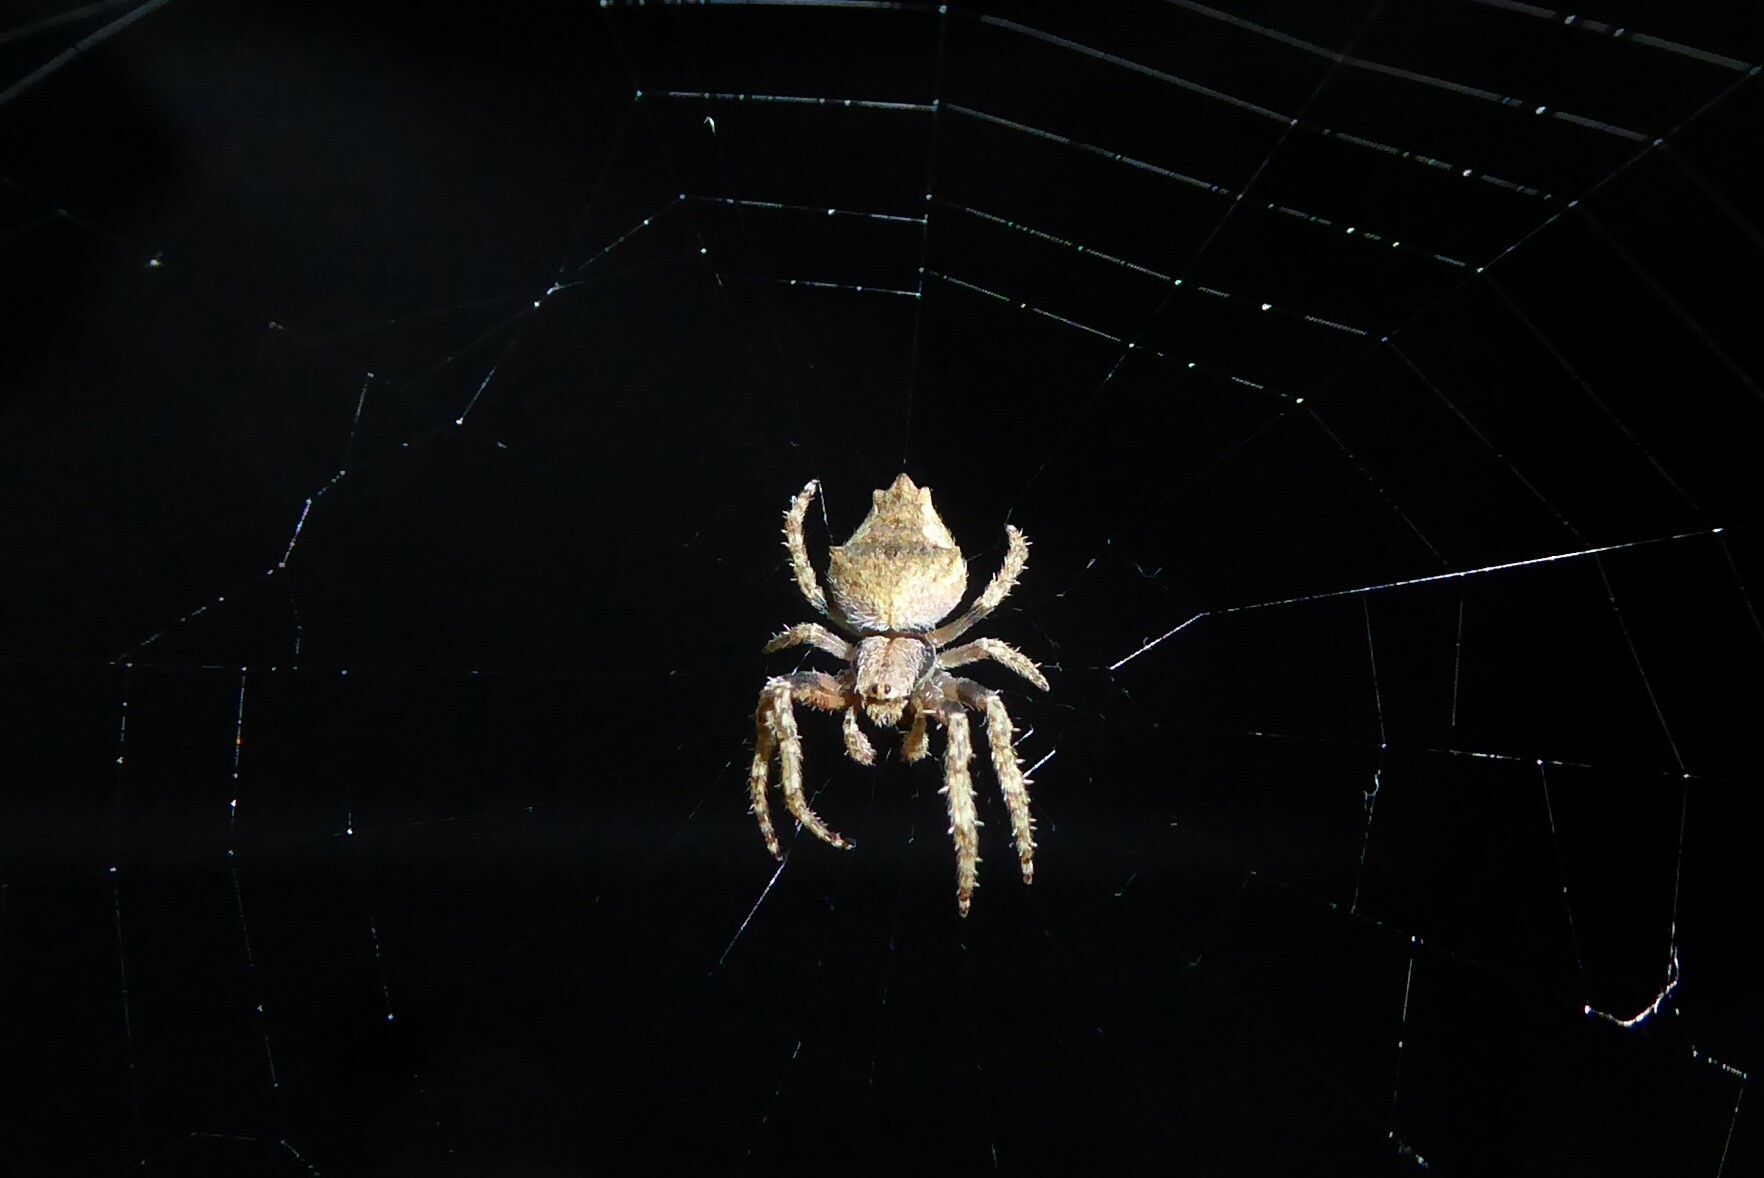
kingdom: Animalia
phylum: Arthropoda
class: Arachnida
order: Araneae
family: Araneidae
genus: Eriophora
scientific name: Eriophora pustulosa
